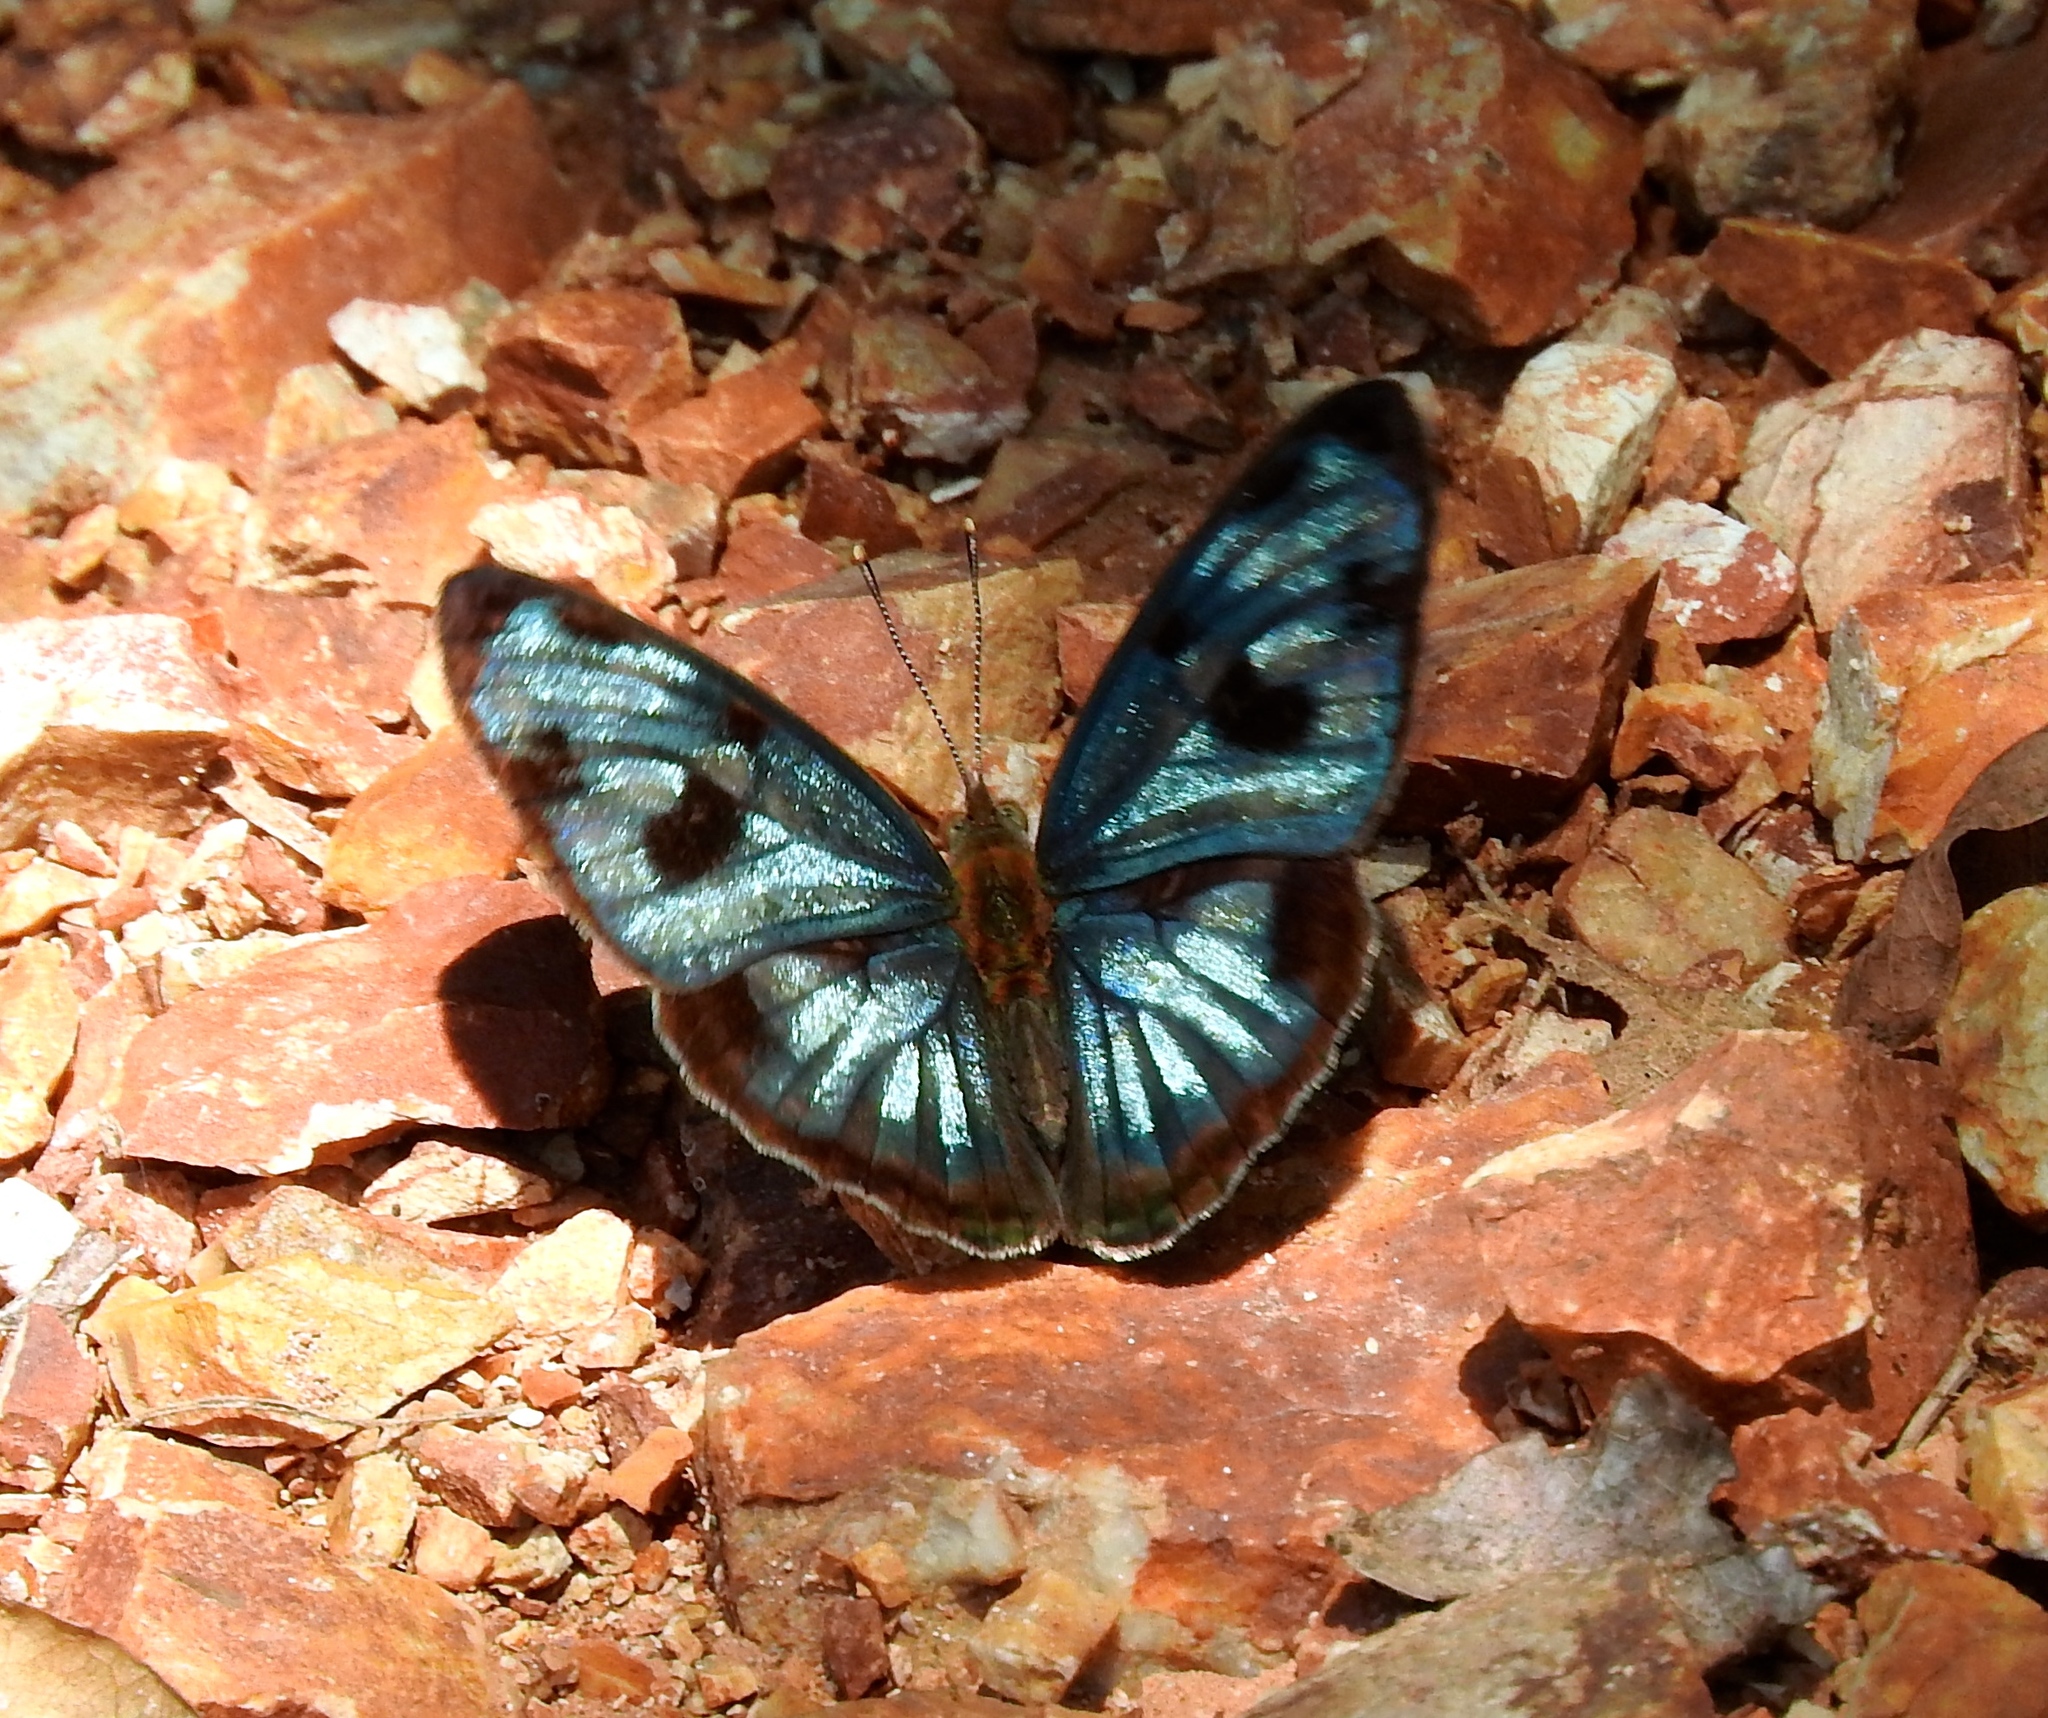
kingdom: Animalia
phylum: Arthropoda
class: Insecta
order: Lepidoptera
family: Nymphalidae
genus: Dynamine
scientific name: Dynamine mylitta
